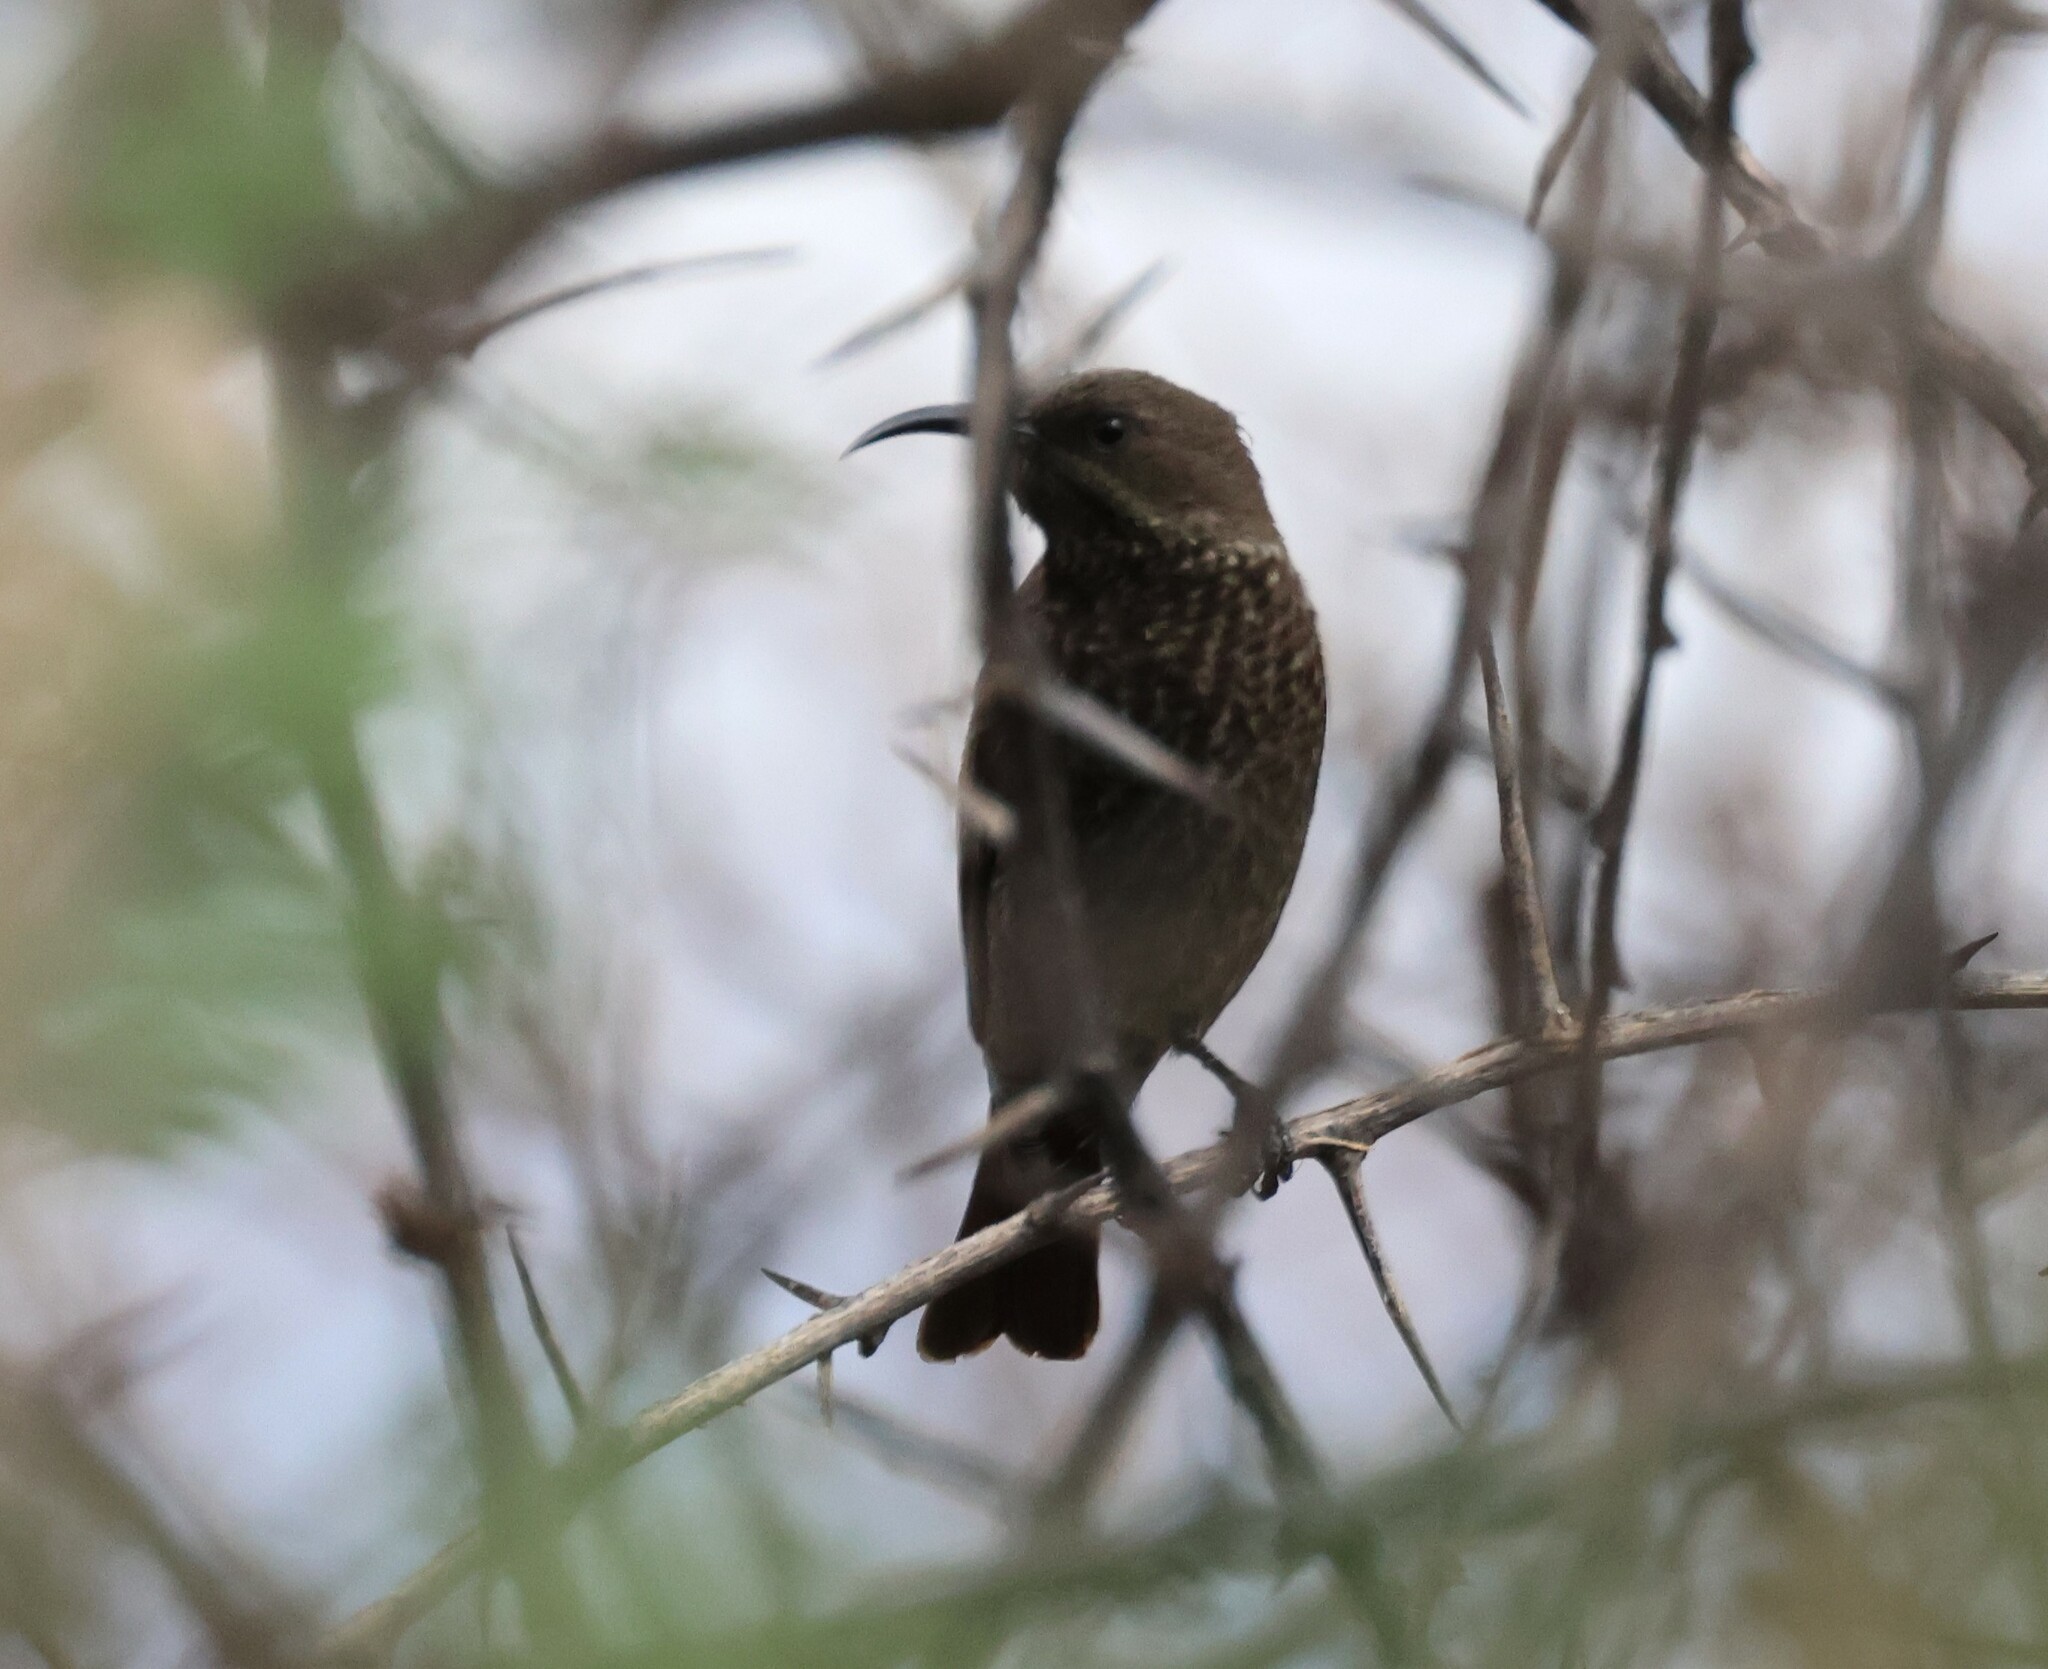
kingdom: Animalia
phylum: Chordata
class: Aves
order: Passeriformes
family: Nectariniidae
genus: Chalcomitra
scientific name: Chalcomitra senegalensis
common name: Scarlet-chested sunbird
